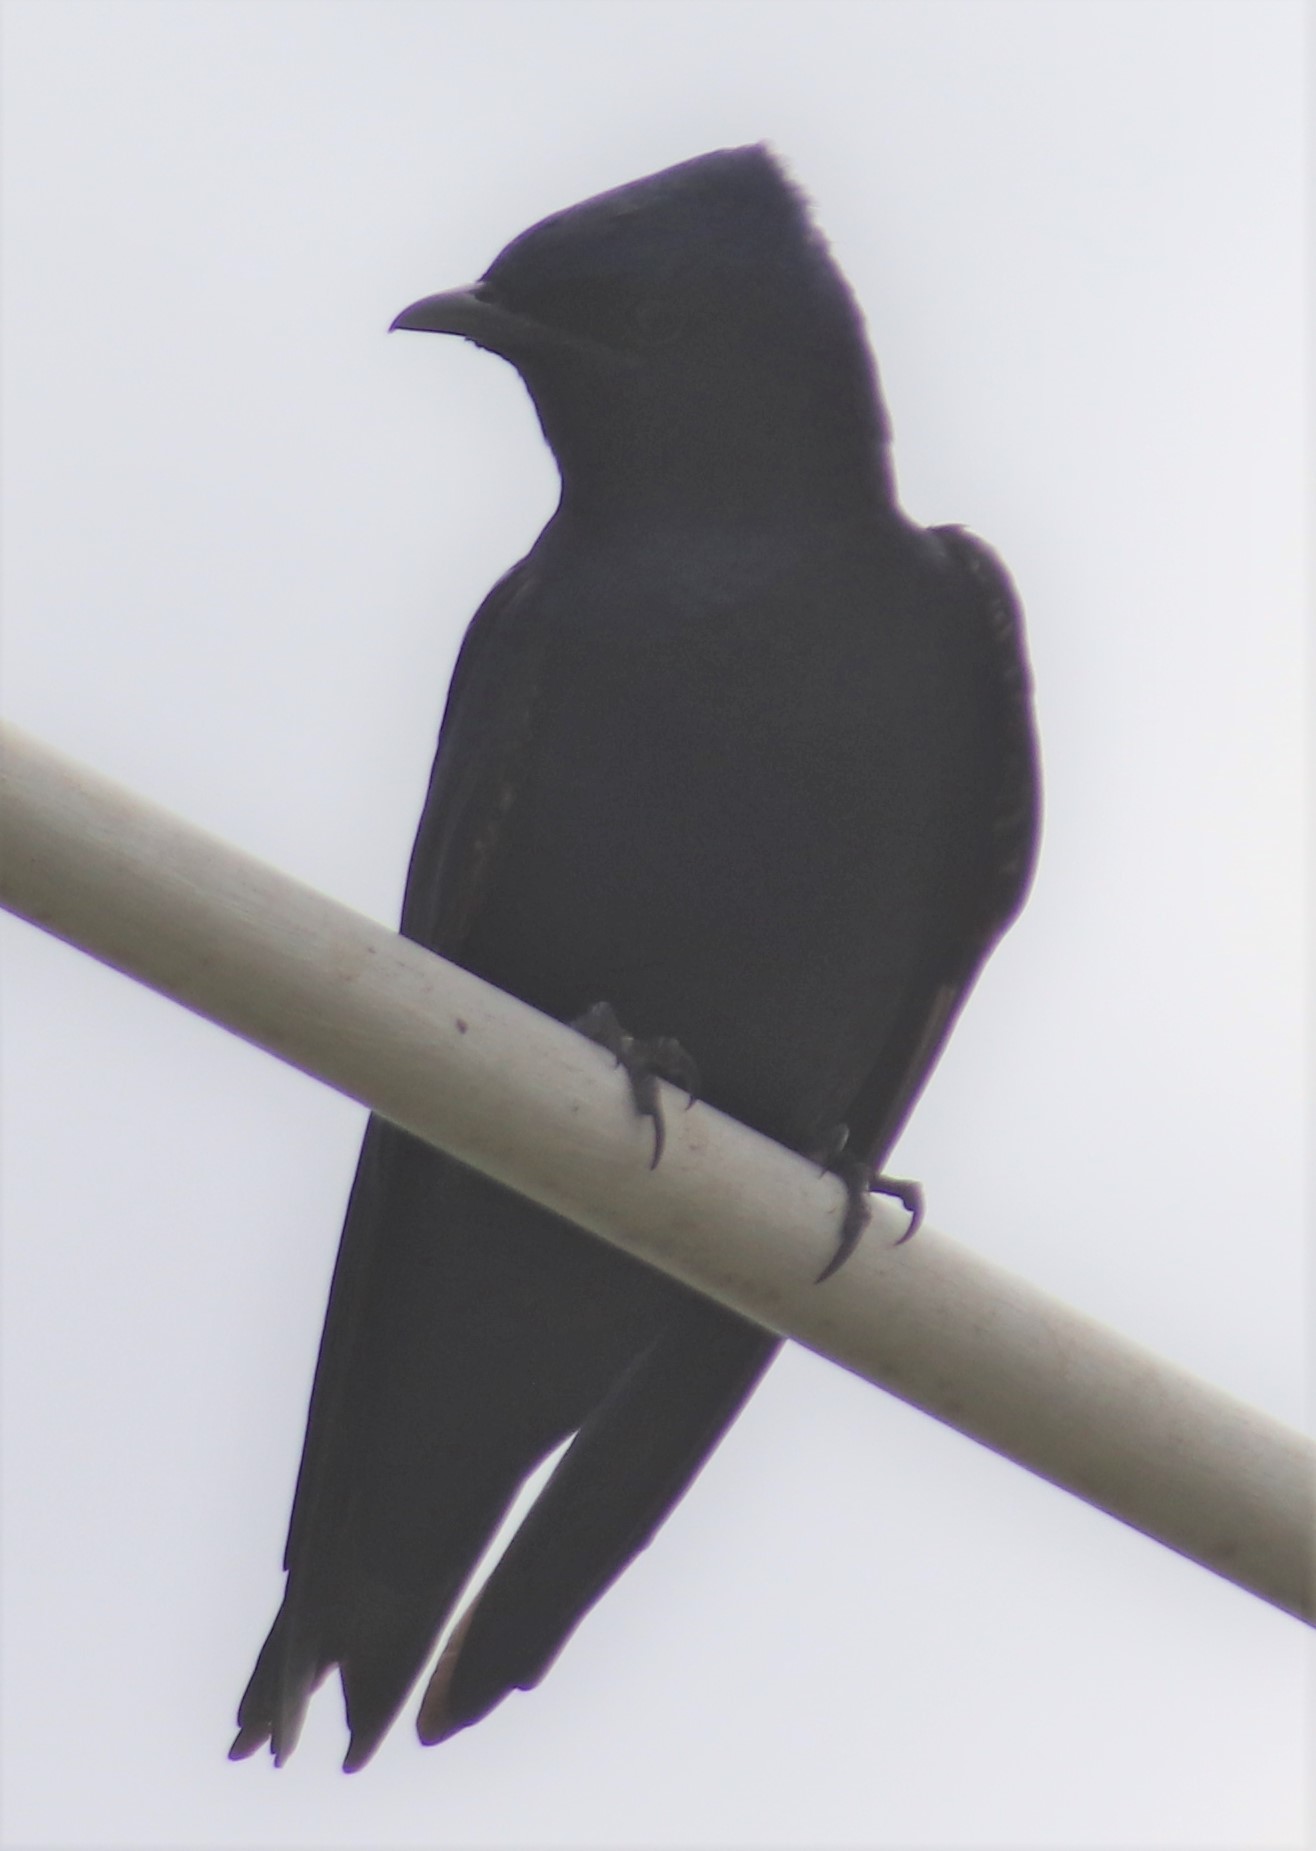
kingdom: Animalia
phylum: Chordata
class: Aves
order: Passeriformes
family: Hirundinidae
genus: Progne
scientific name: Progne subis
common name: Purple martin
